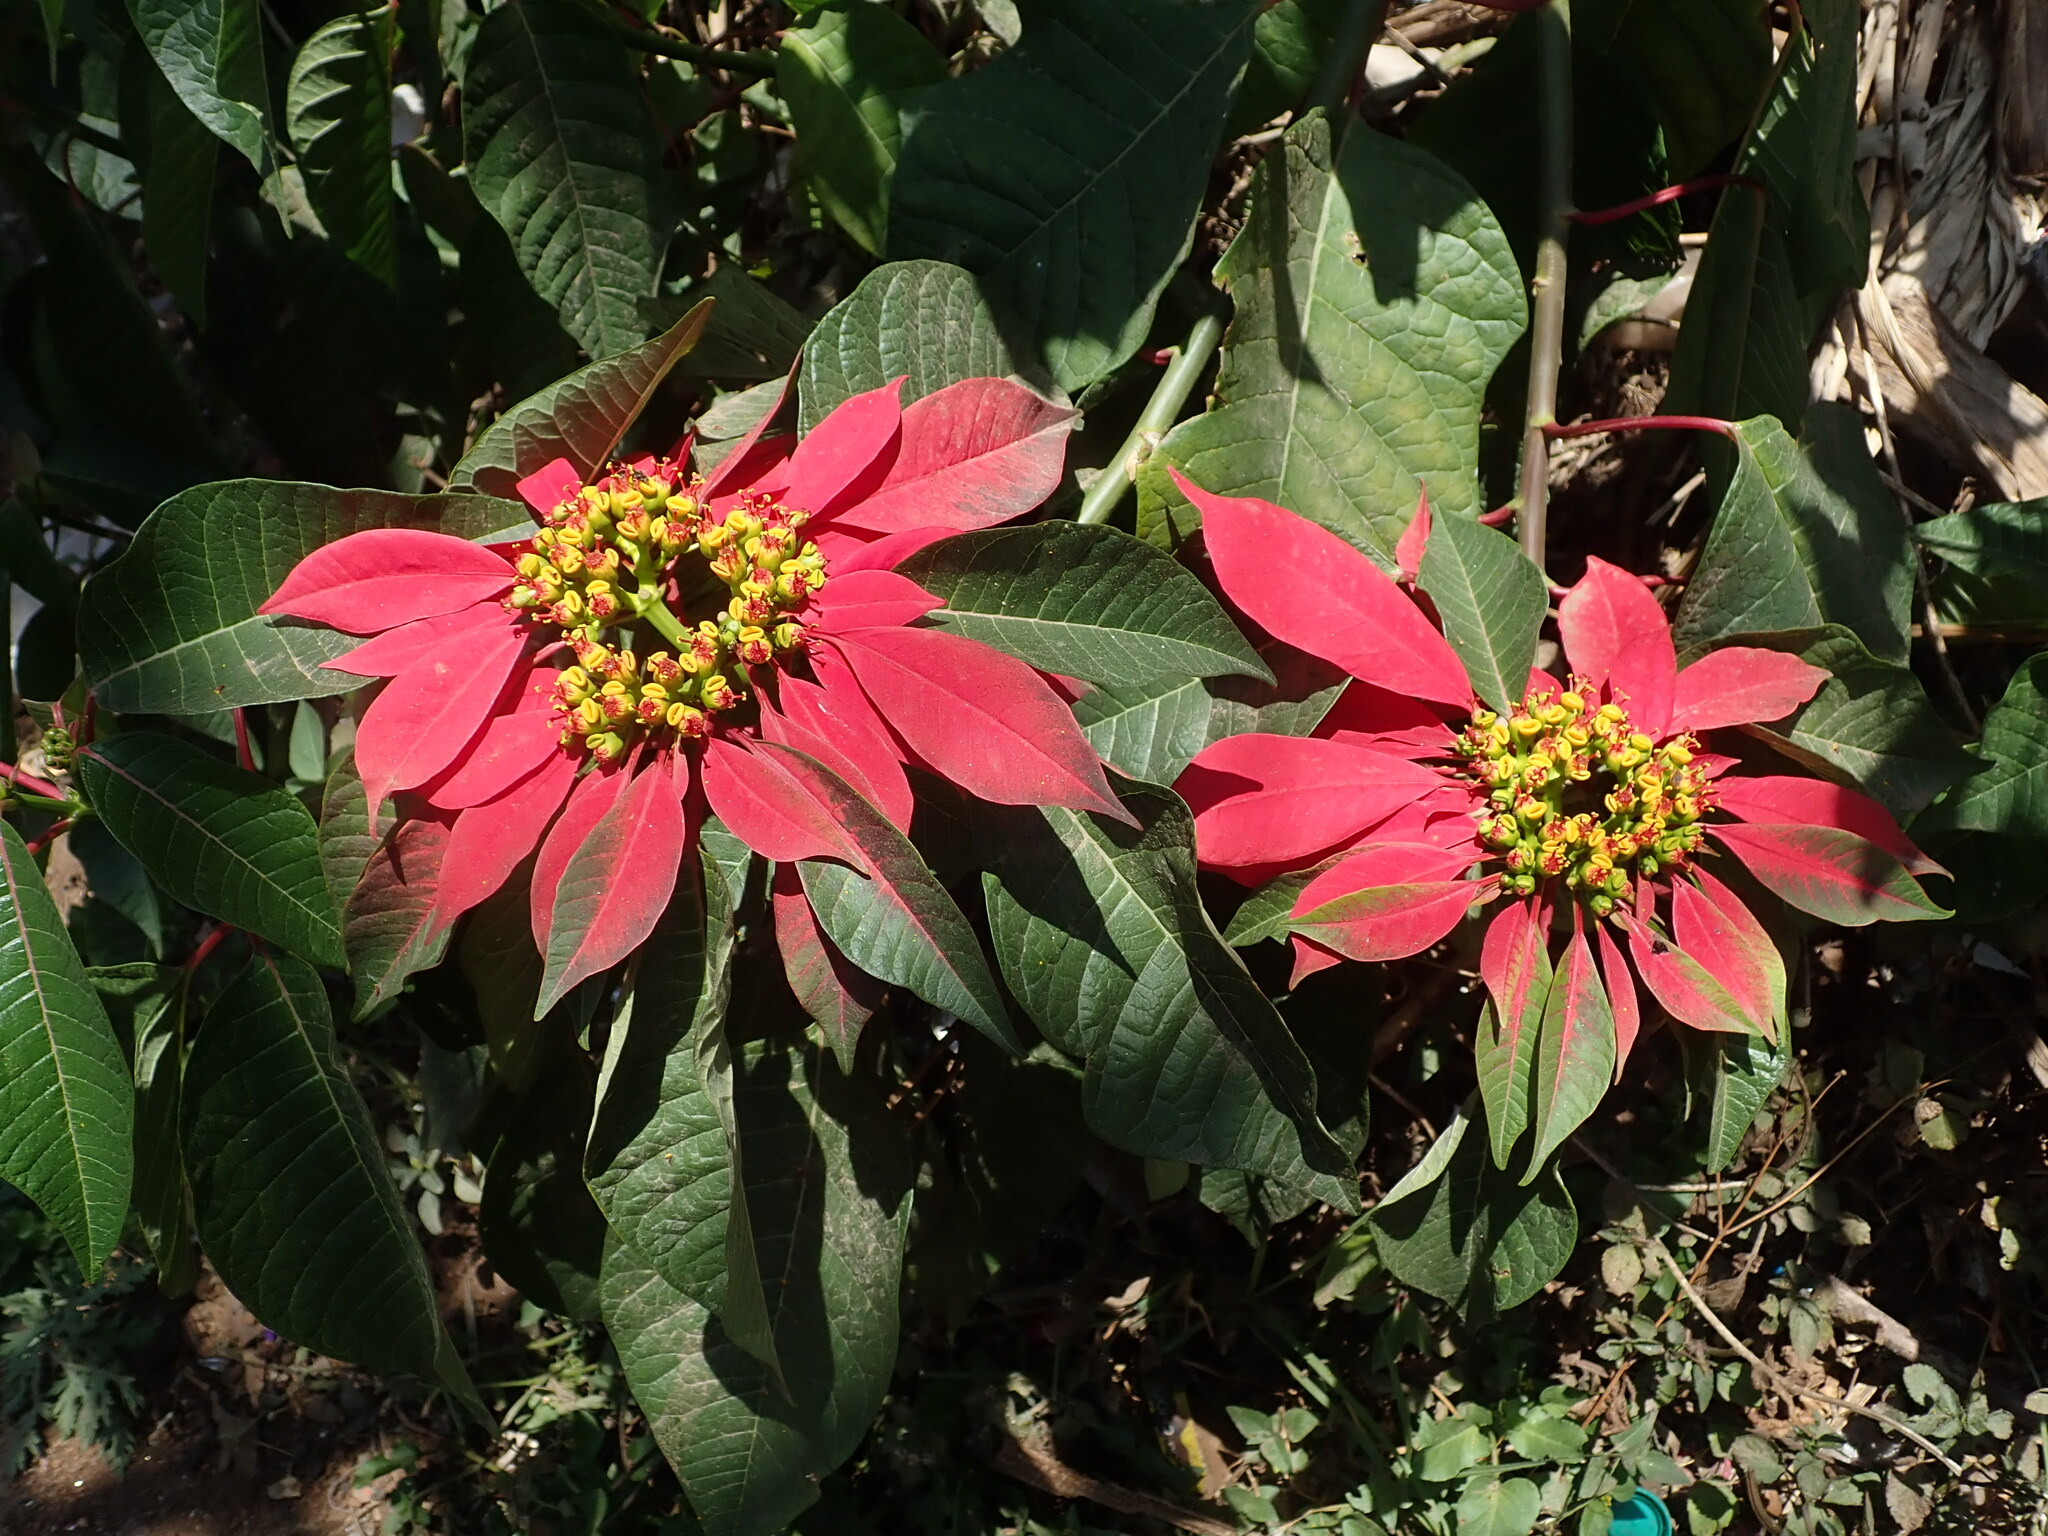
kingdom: Plantae
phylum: Tracheophyta
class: Magnoliopsida
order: Malpighiales
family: Euphorbiaceae
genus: Euphorbia
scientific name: Euphorbia pulcherrima
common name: Christmas-flower
